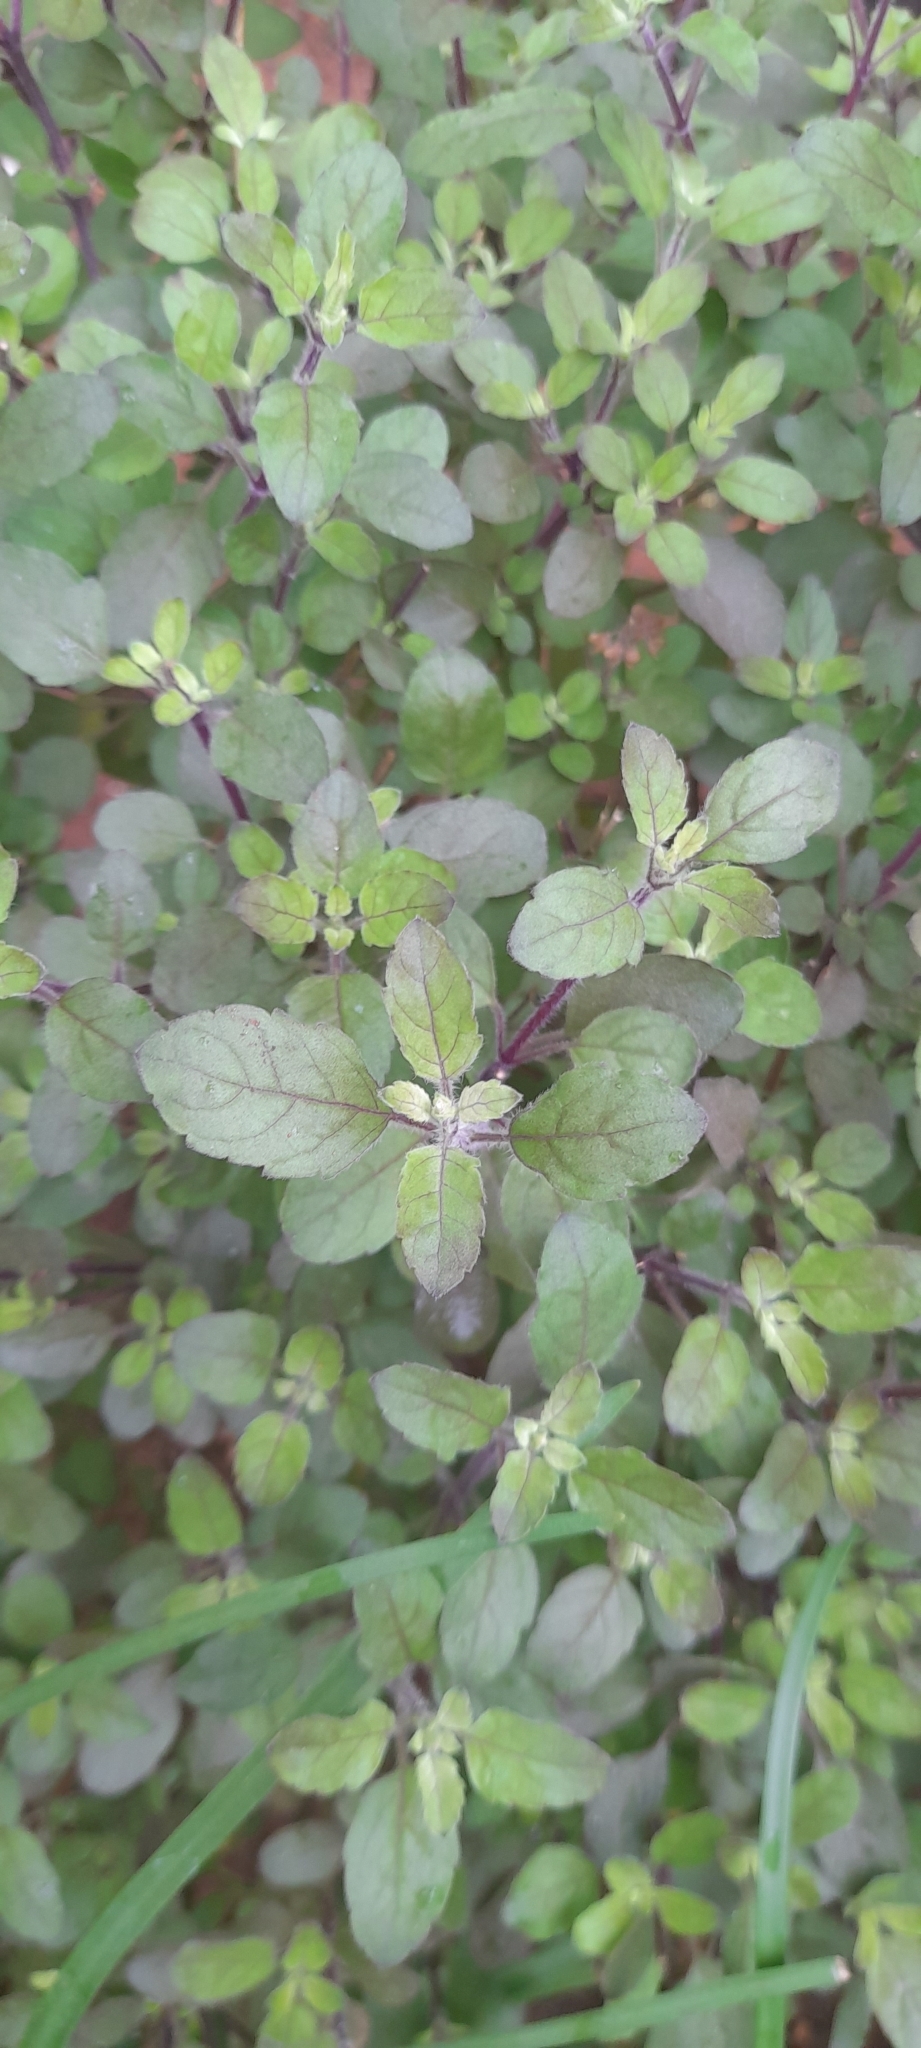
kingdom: Plantae
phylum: Tracheophyta
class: Magnoliopsida
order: Lamiales
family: Lamiaceae
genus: Ocimum
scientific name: Ocimum tenuiflorum
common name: Sacred basil
